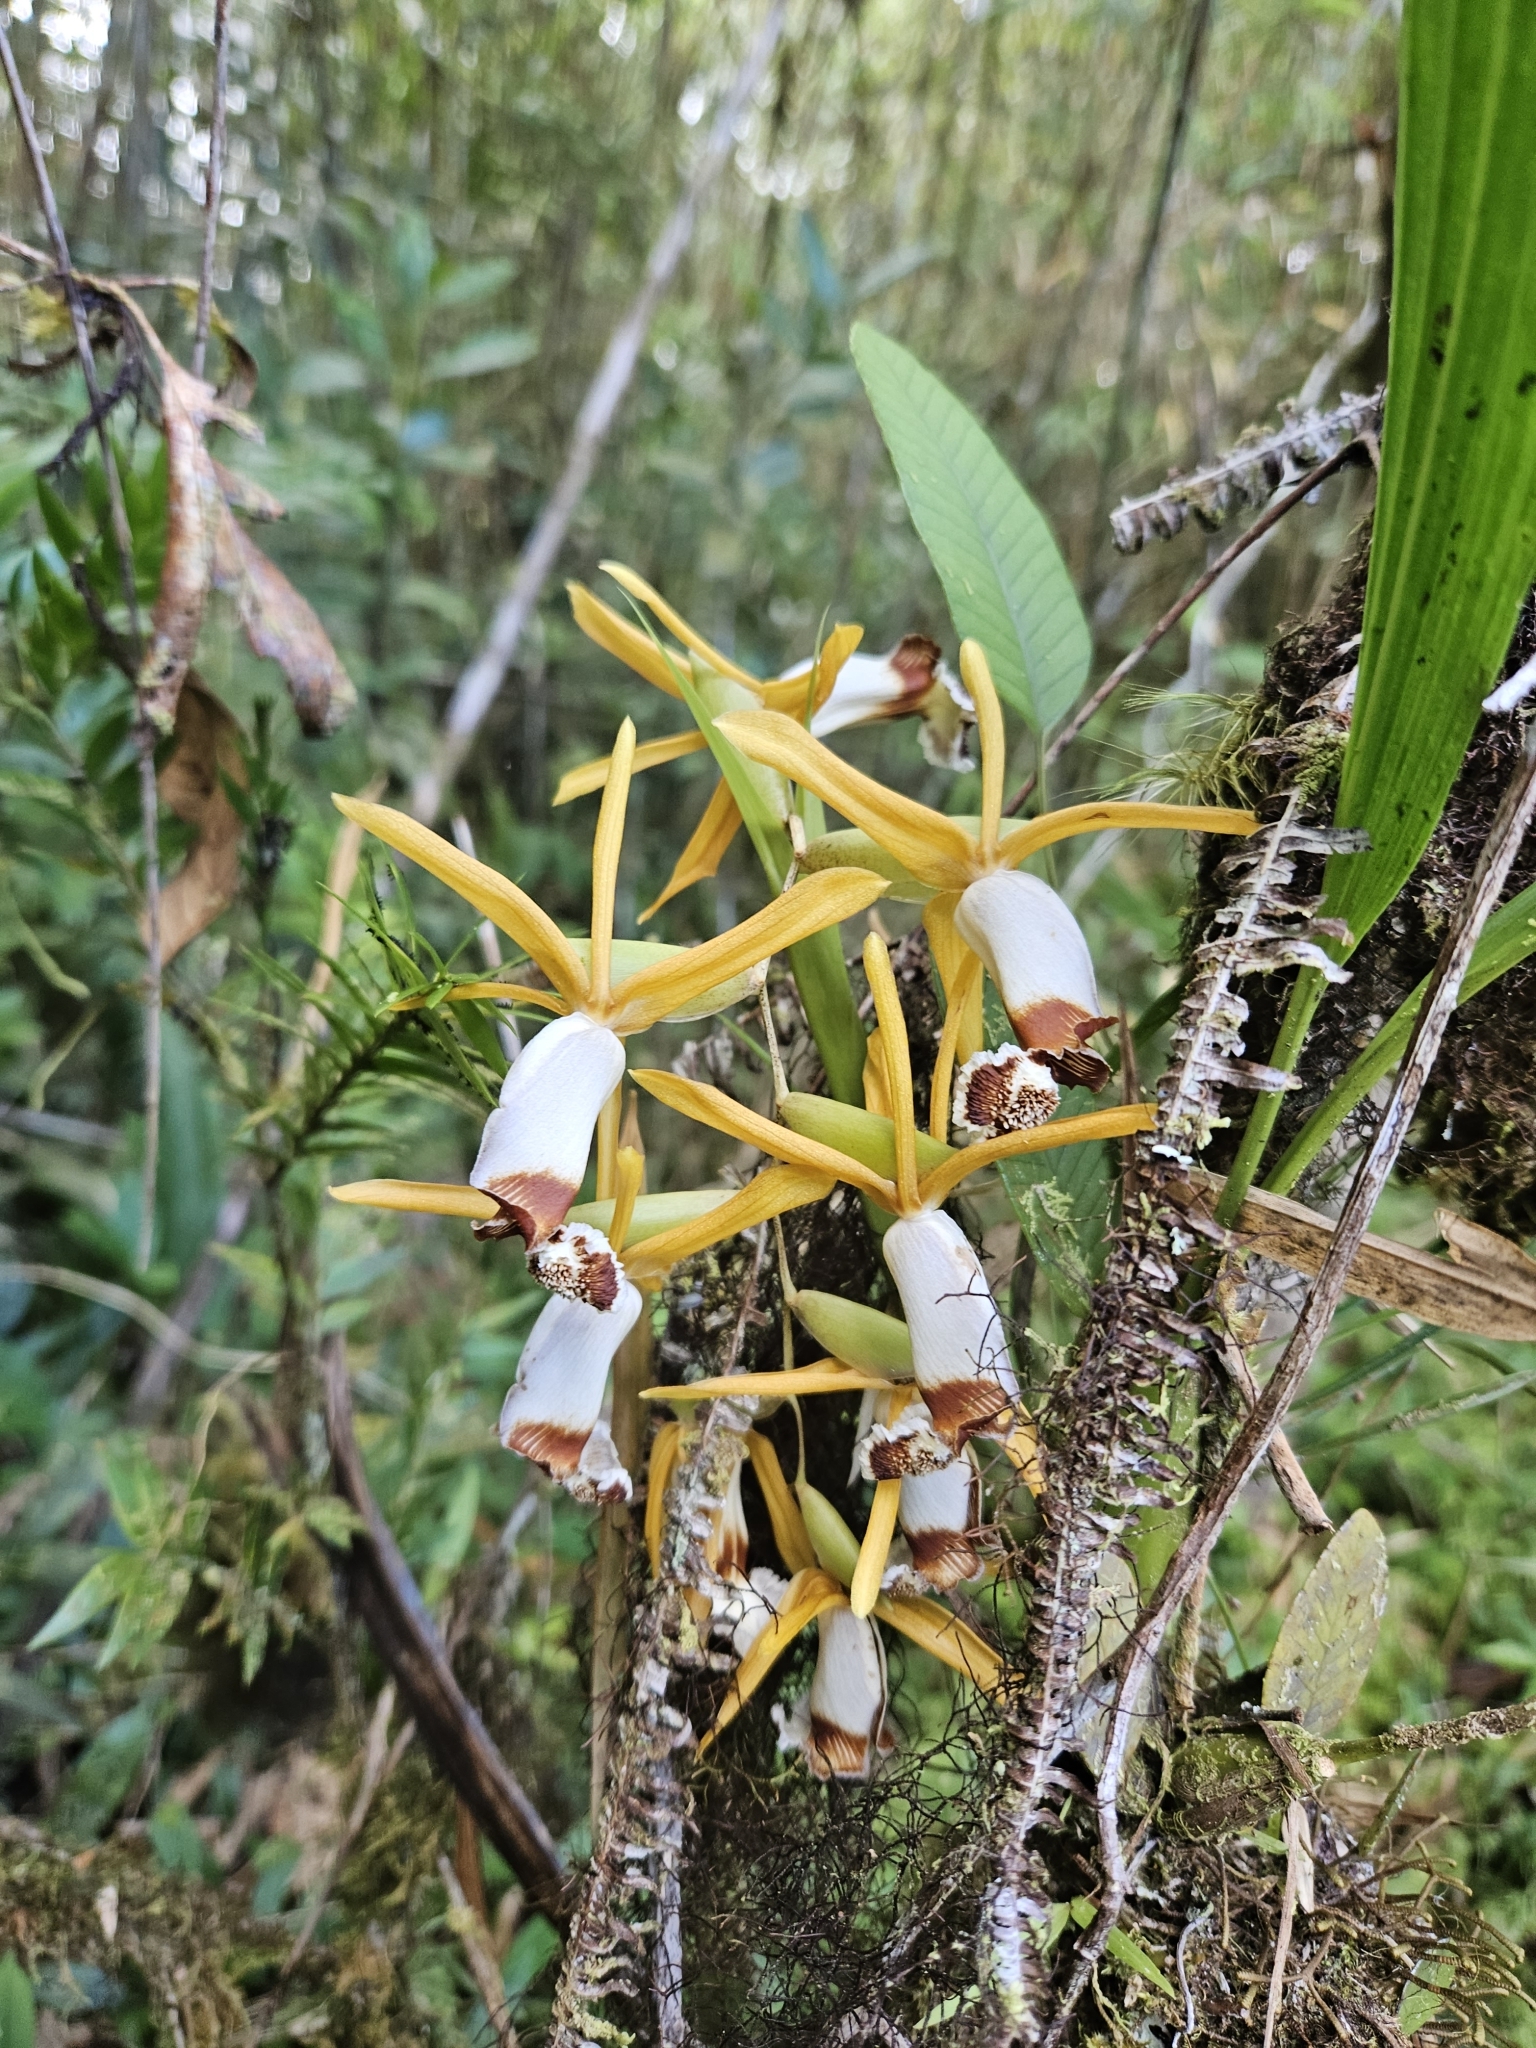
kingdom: Plantae
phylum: Tracheophyta
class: Liliopsida
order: Asparagales
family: Orchidaceae
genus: Coelogyne
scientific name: Coelogyne radioferens
